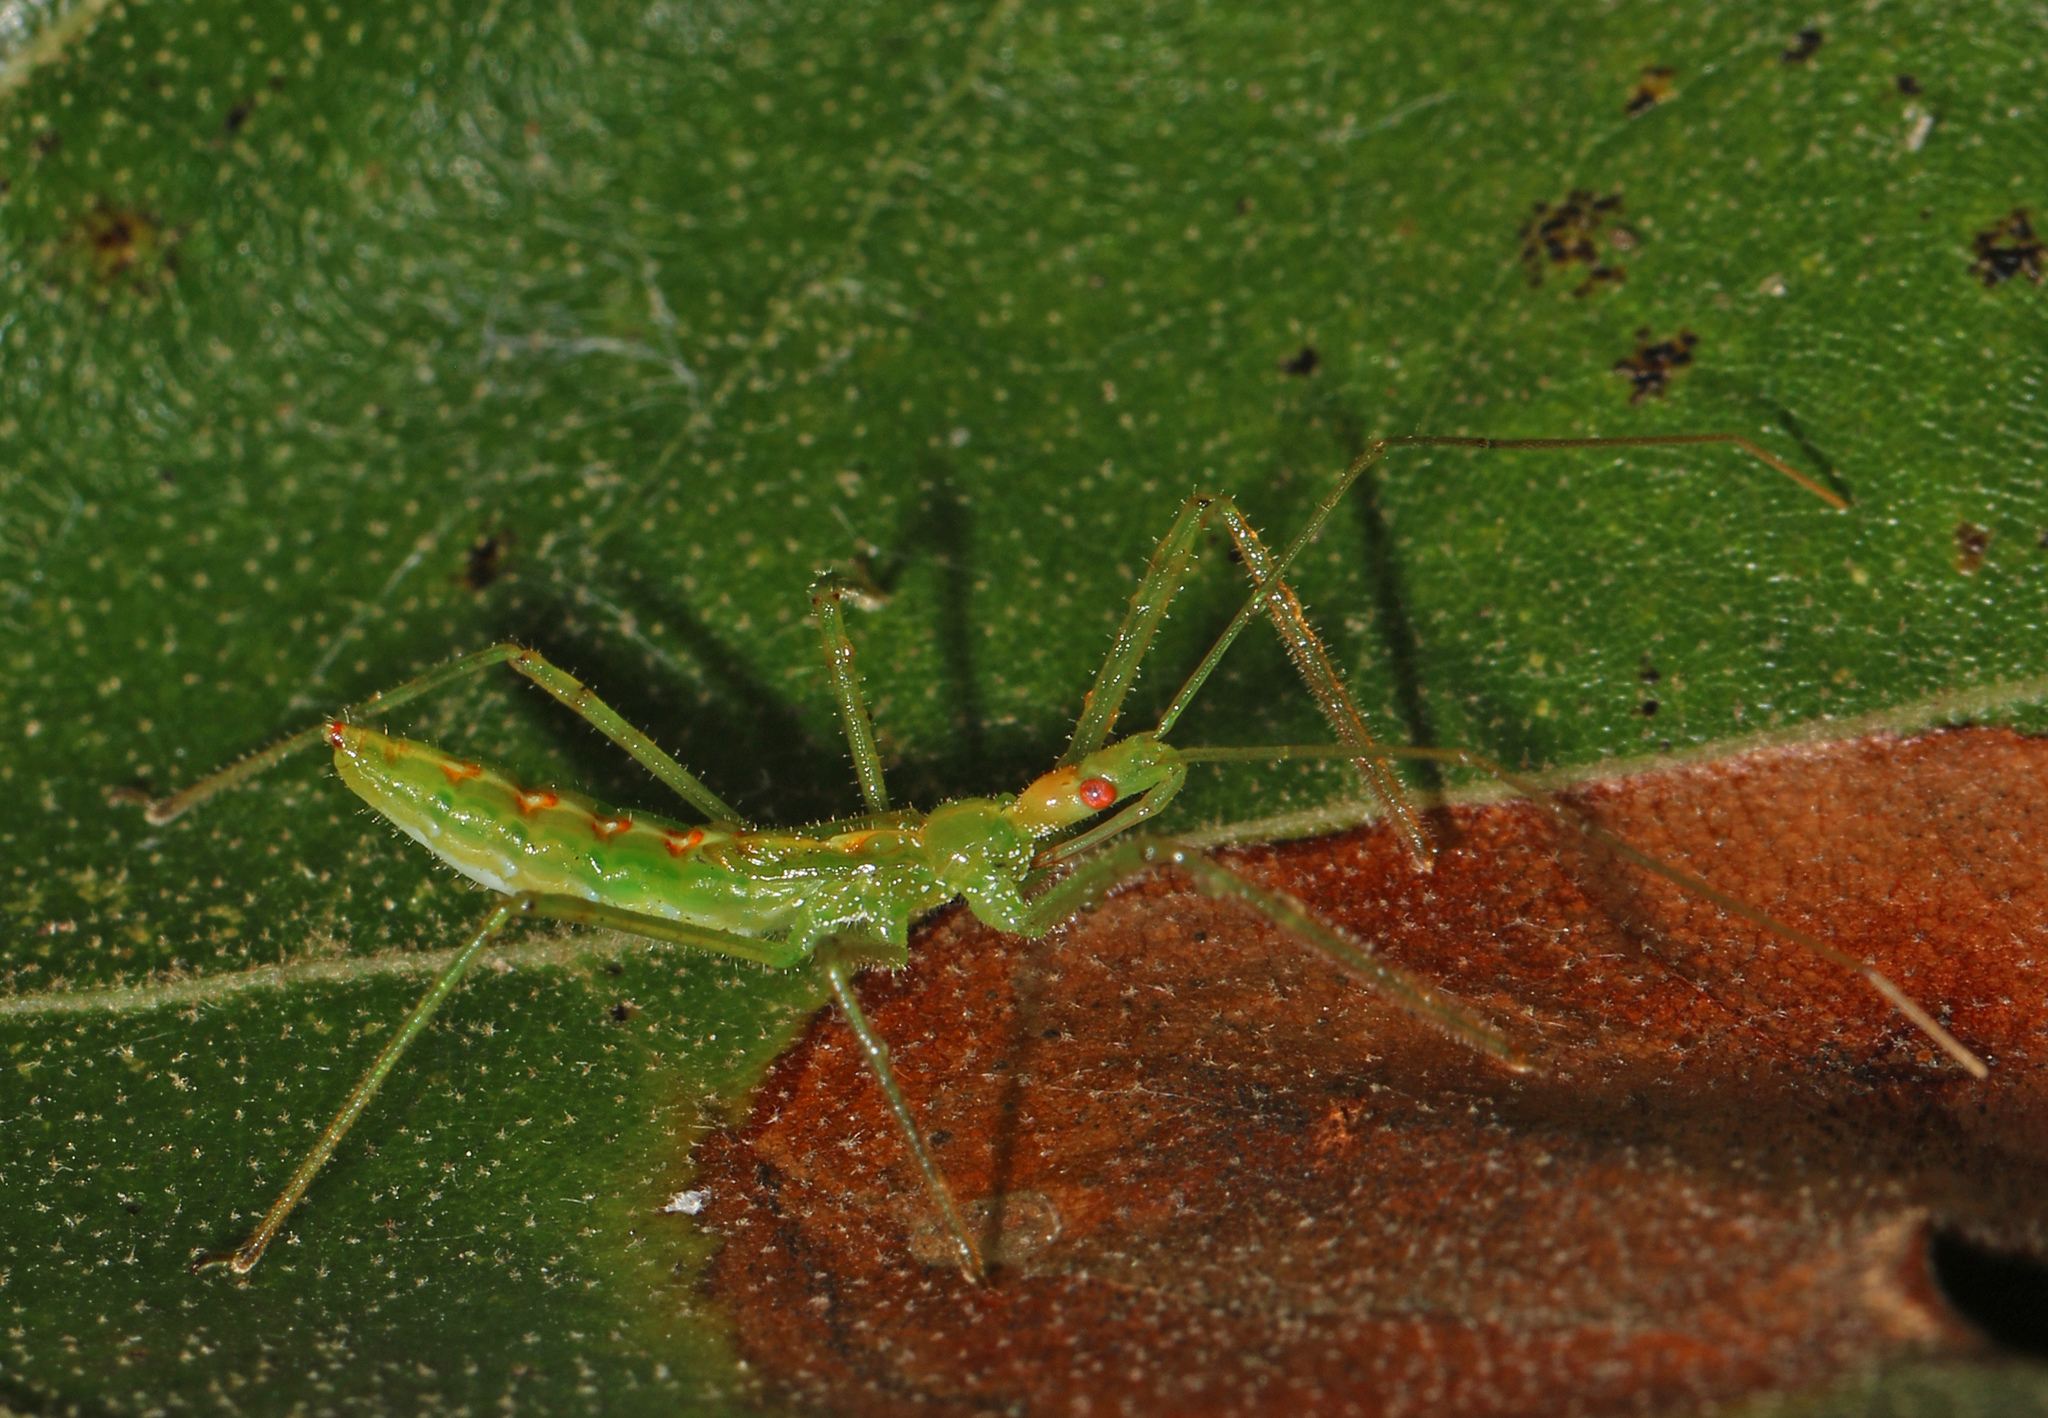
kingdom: Animalia
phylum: Arthropoda
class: Insecta
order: Hemiptera
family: Reduviidae
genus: Zelus
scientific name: Zelus luridus
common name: Pale green assassin bug
